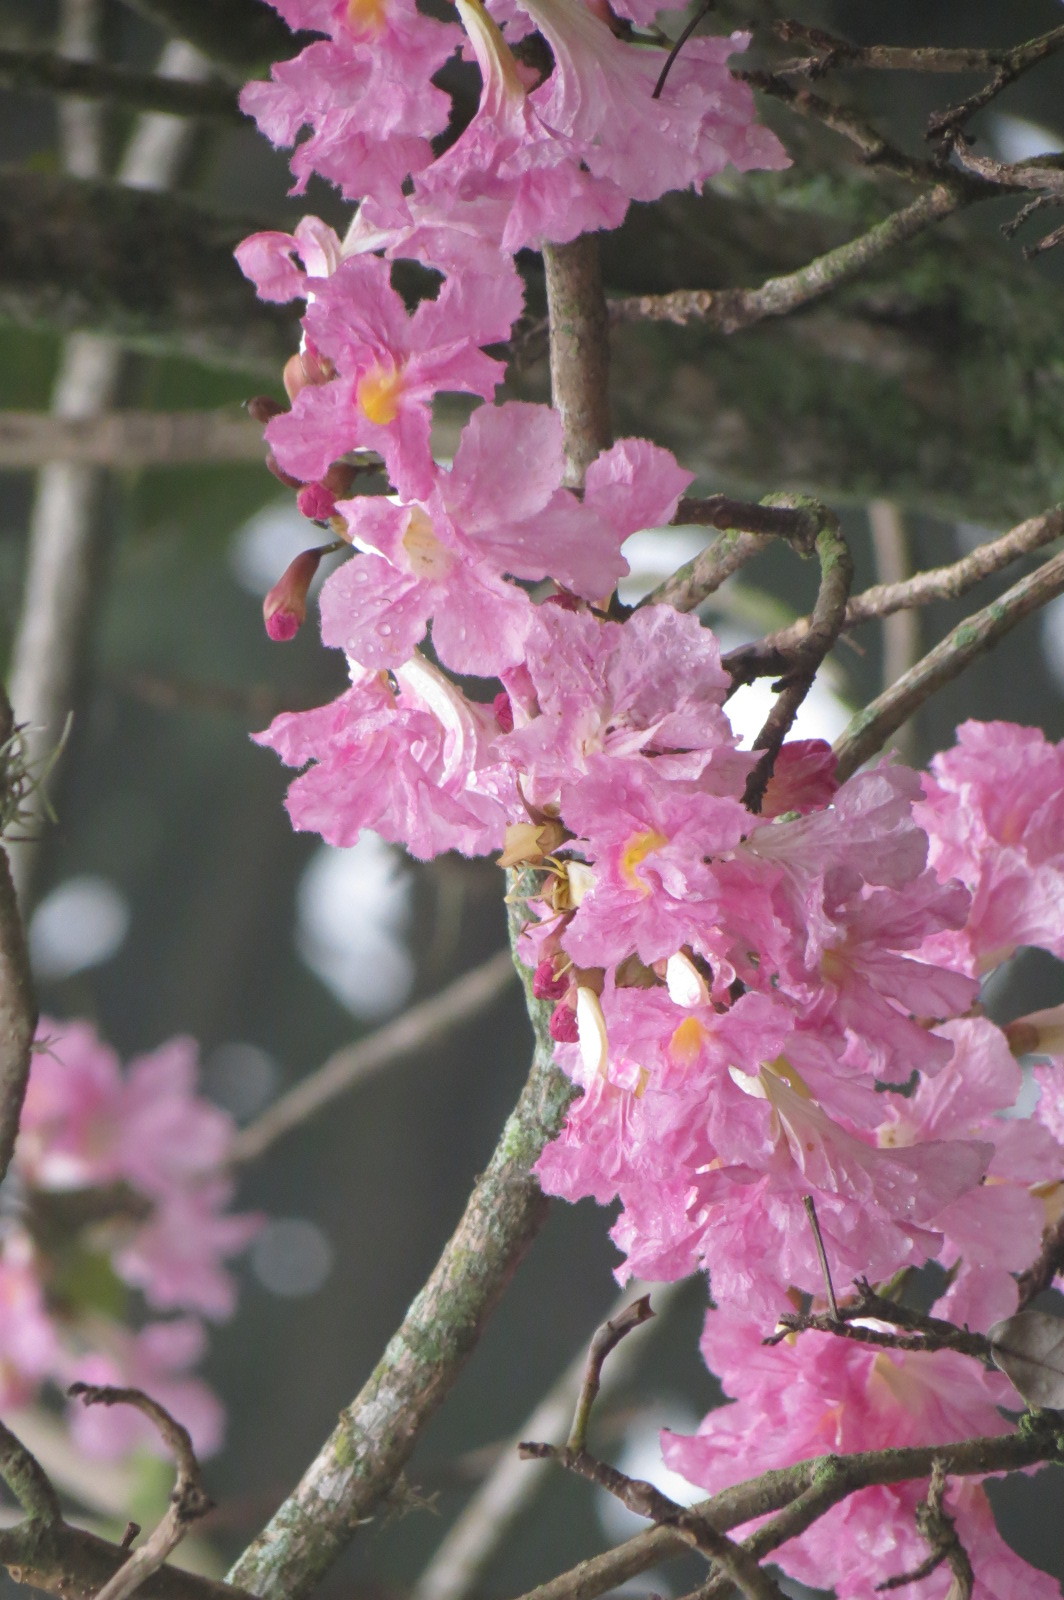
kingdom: Plantae
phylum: Tracheophyta
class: Magnoliopsida
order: Lamiales
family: Bignoniaceae
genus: Tabebuia
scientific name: Tabebuia rosea
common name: Pink poui
